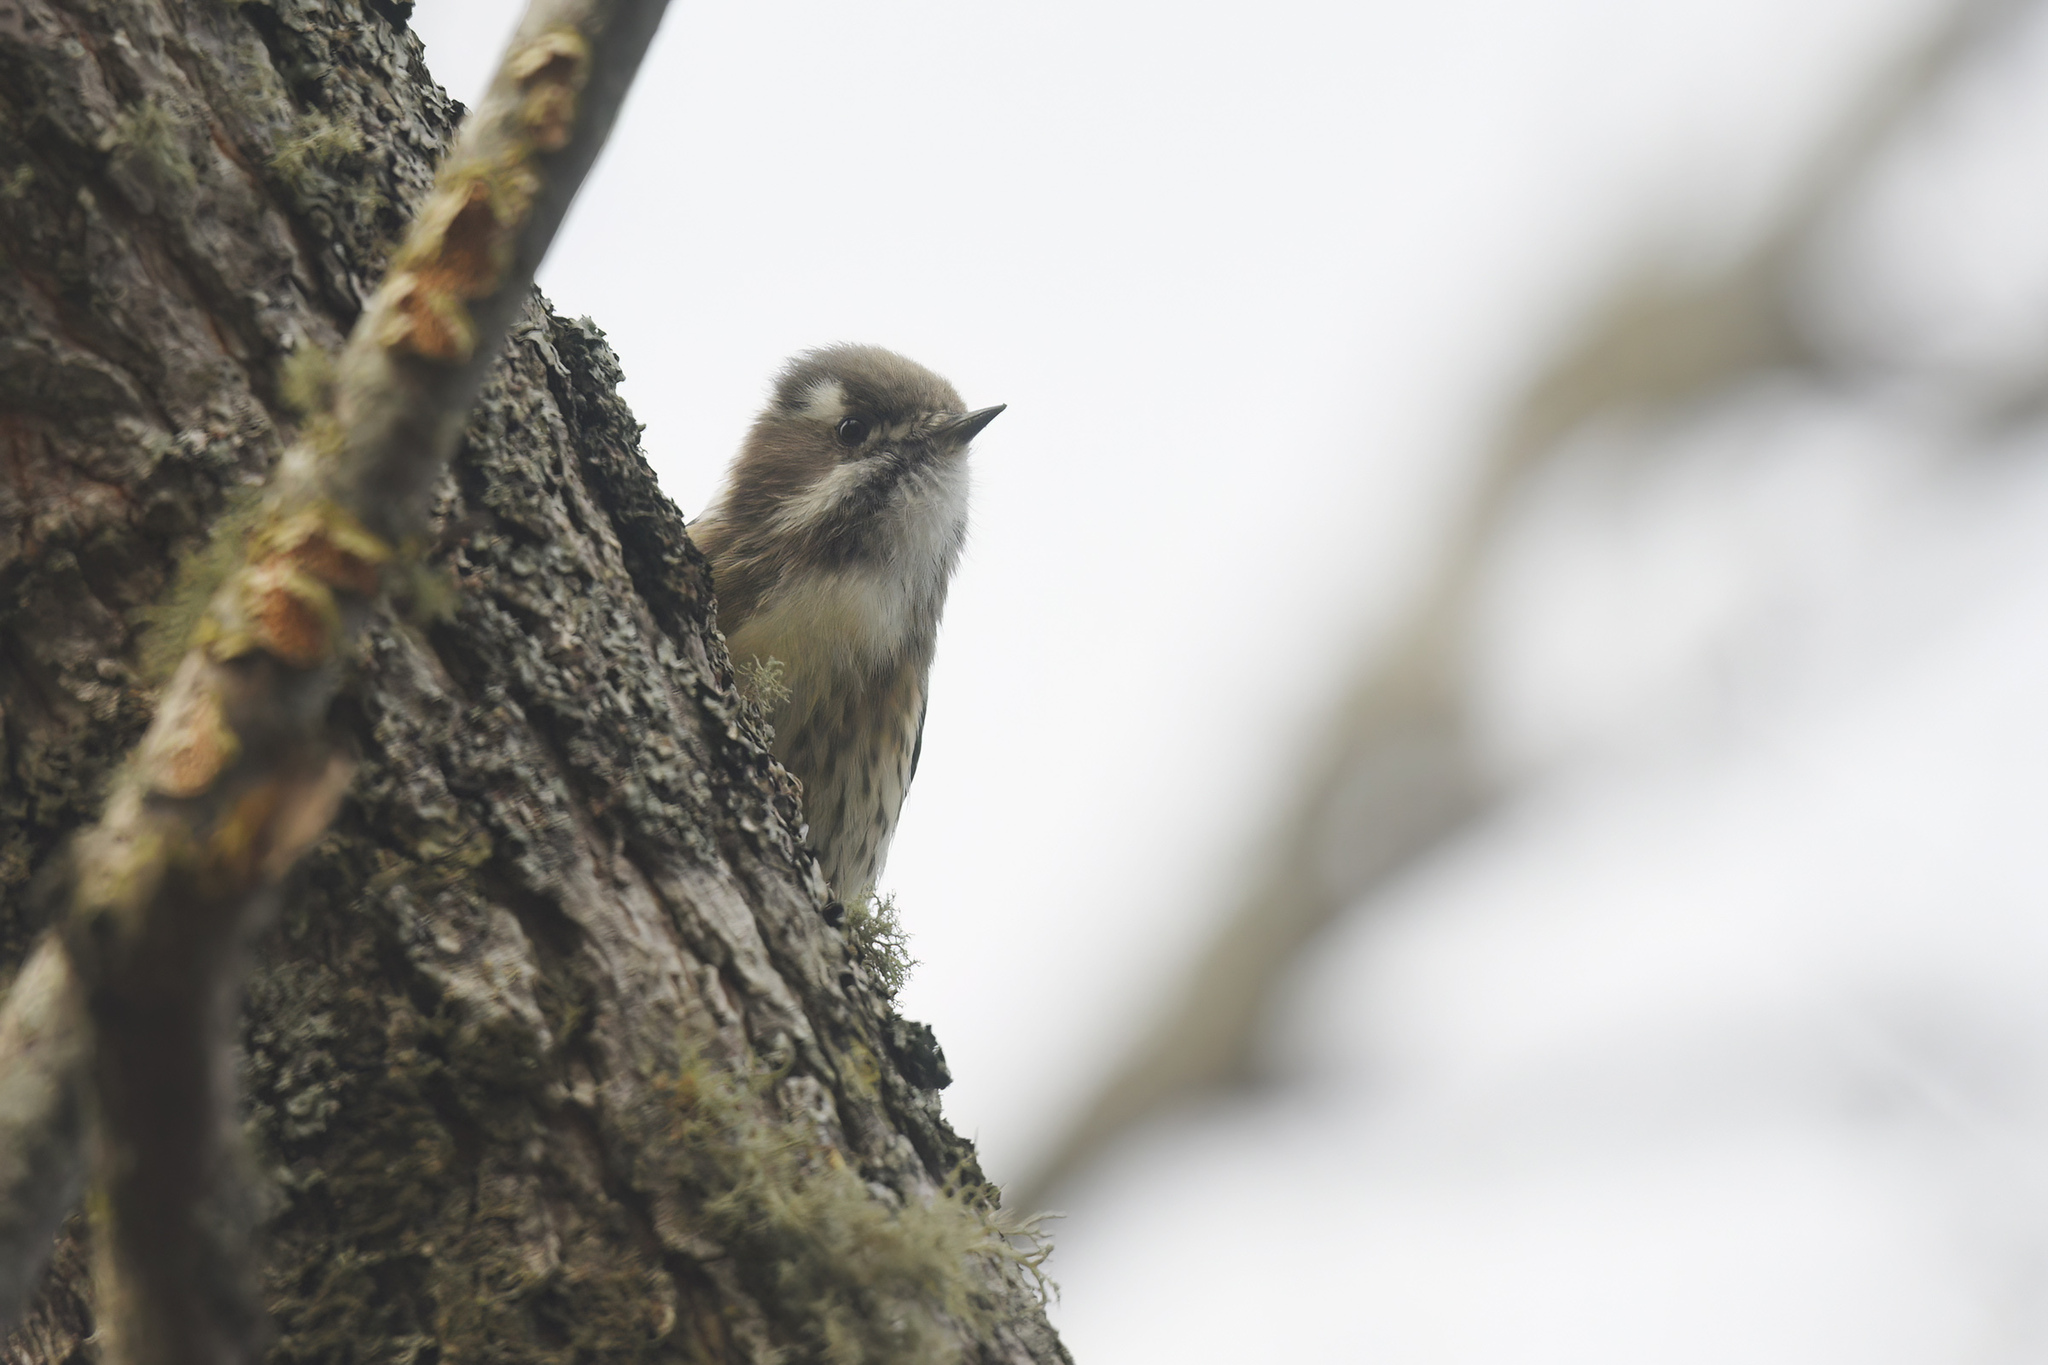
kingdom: Animalia
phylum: Chordata
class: Aves
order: Piciformes
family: Picidae
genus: Yungipicus
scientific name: Yungipicus kizuki
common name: Japanese pygmy woodpecker
